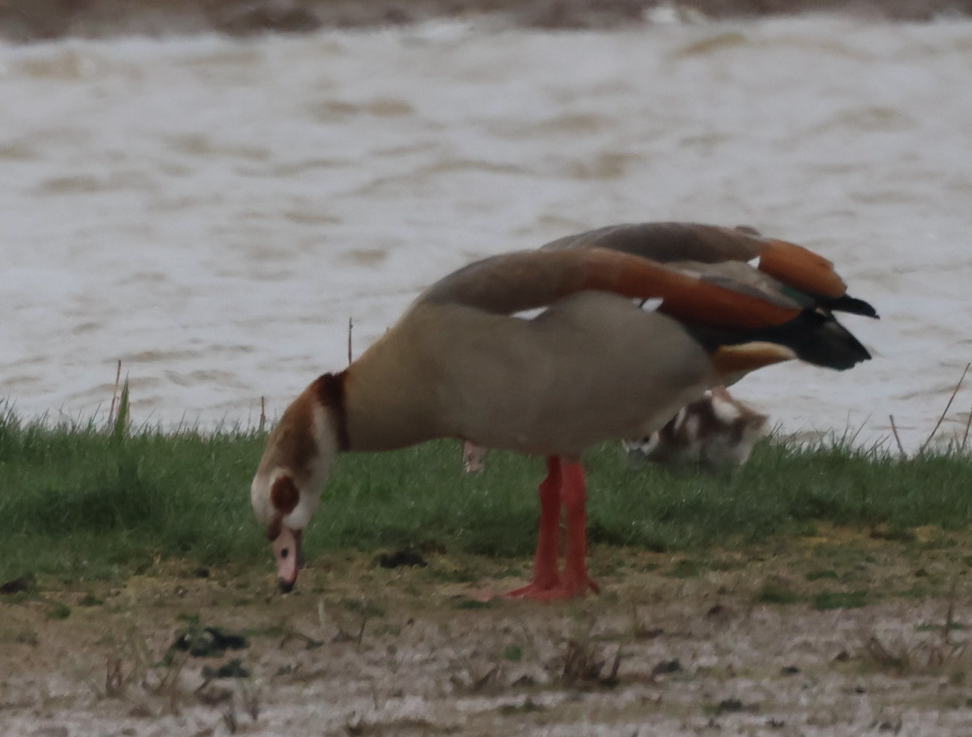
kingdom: Animalia
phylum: Chordata
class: Aves
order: Anseriformes
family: Anatidae
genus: Alopochen
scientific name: Alopochen aegyptiaca
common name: Egyptian goose
